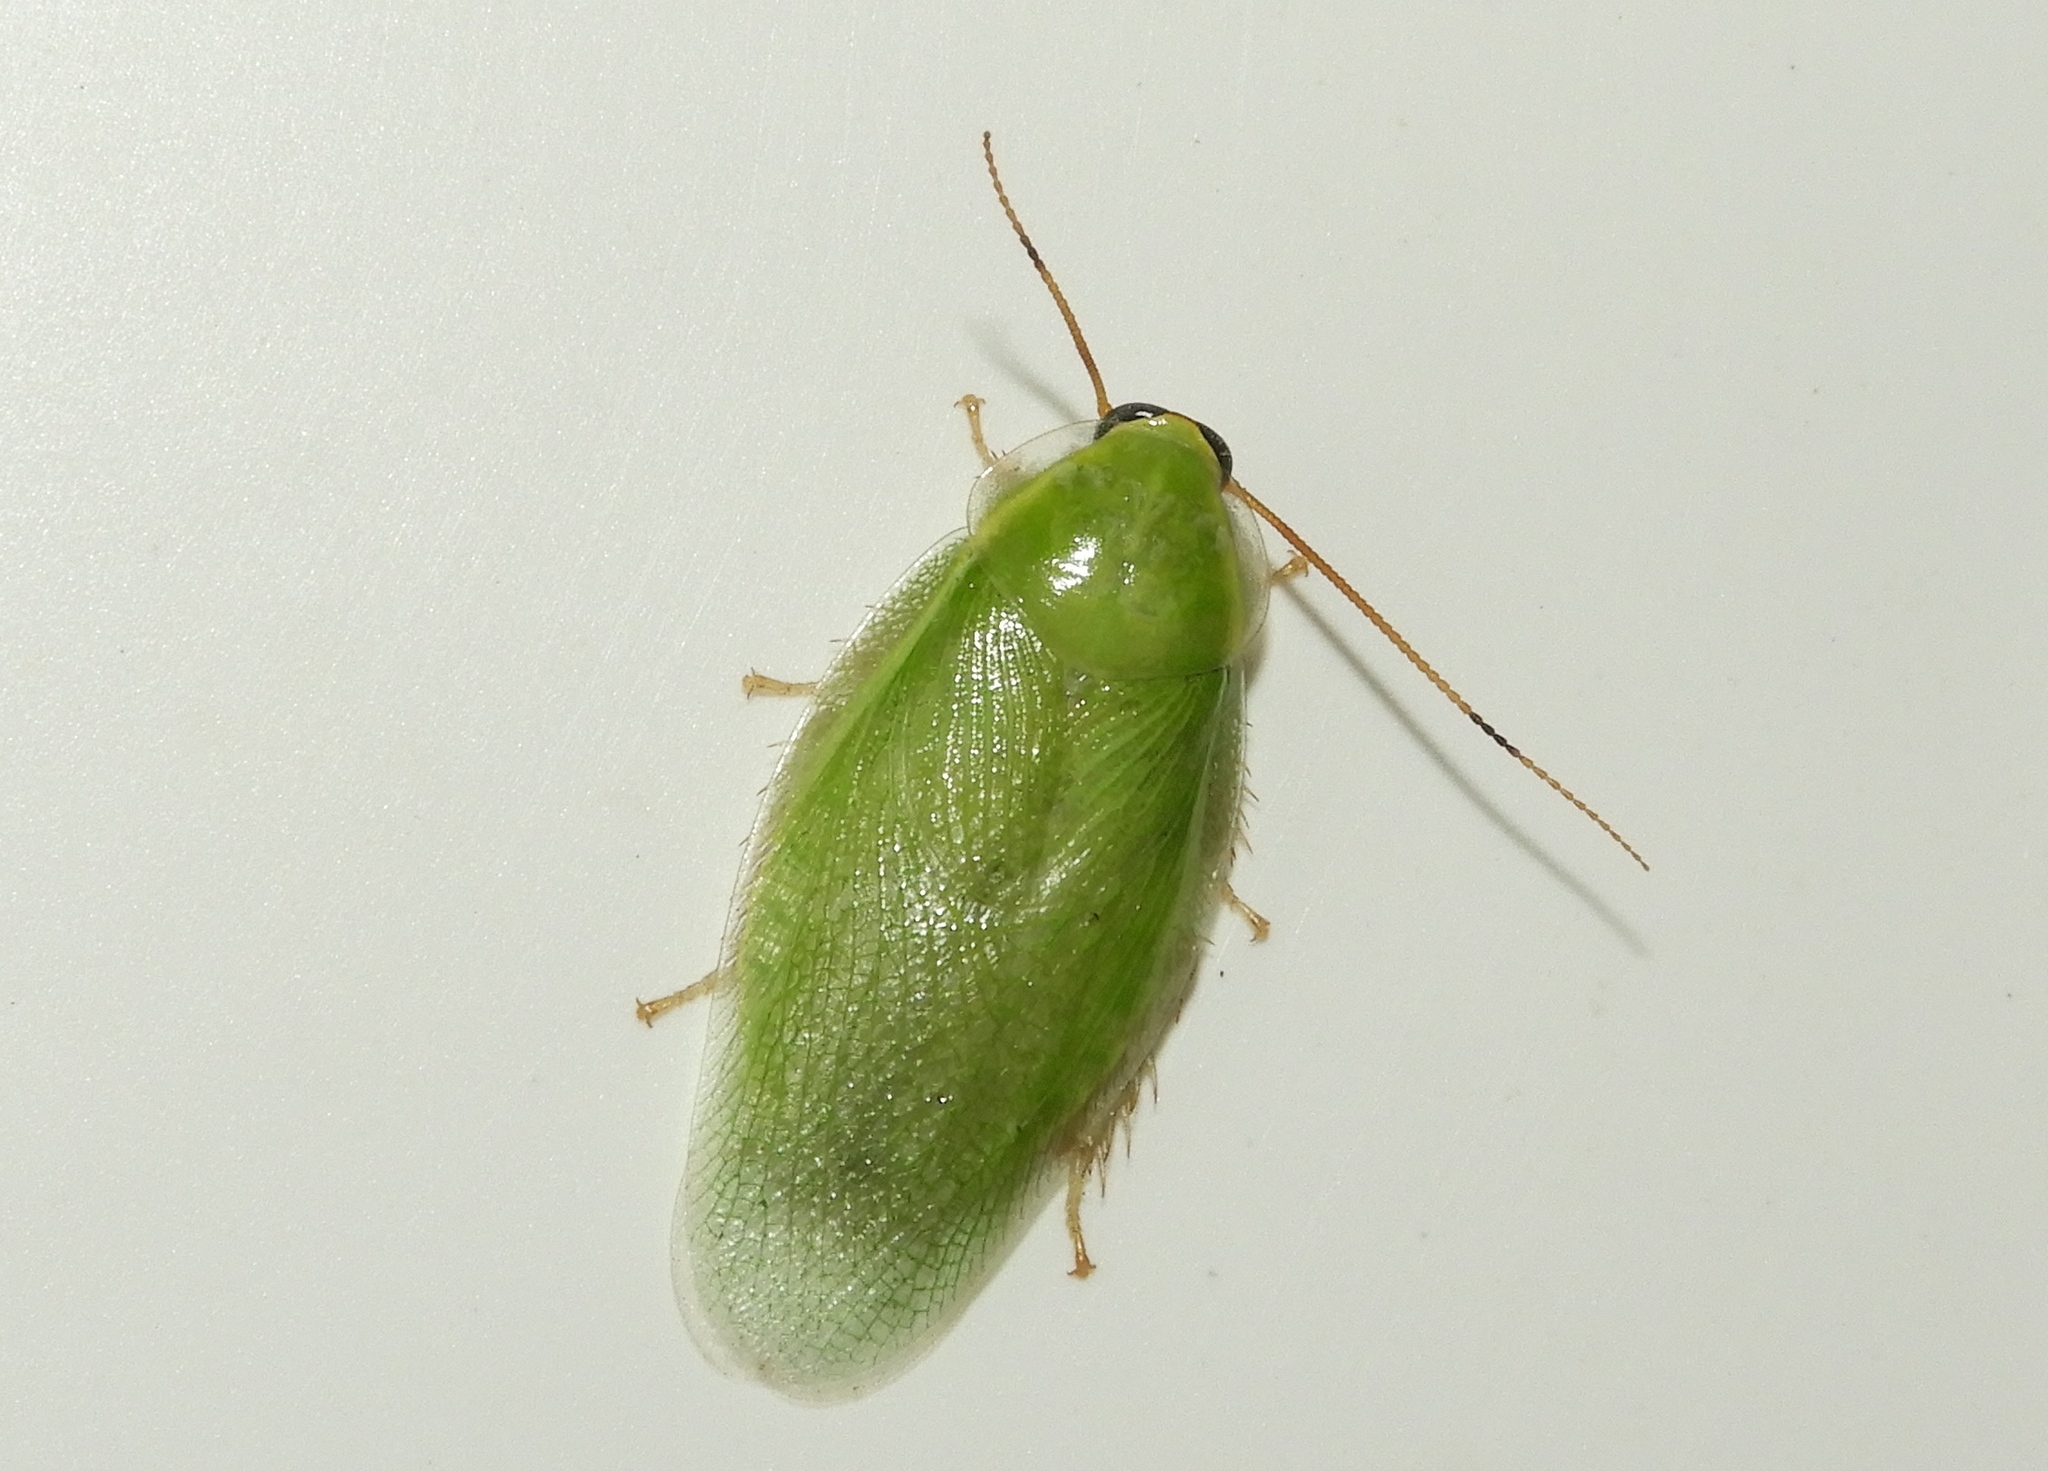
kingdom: Animalia
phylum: Arthropoda
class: Insecta
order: Blattodea
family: Blaberidae
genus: Panchlora
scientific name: Panchlora nivea
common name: Cuban cockroach
